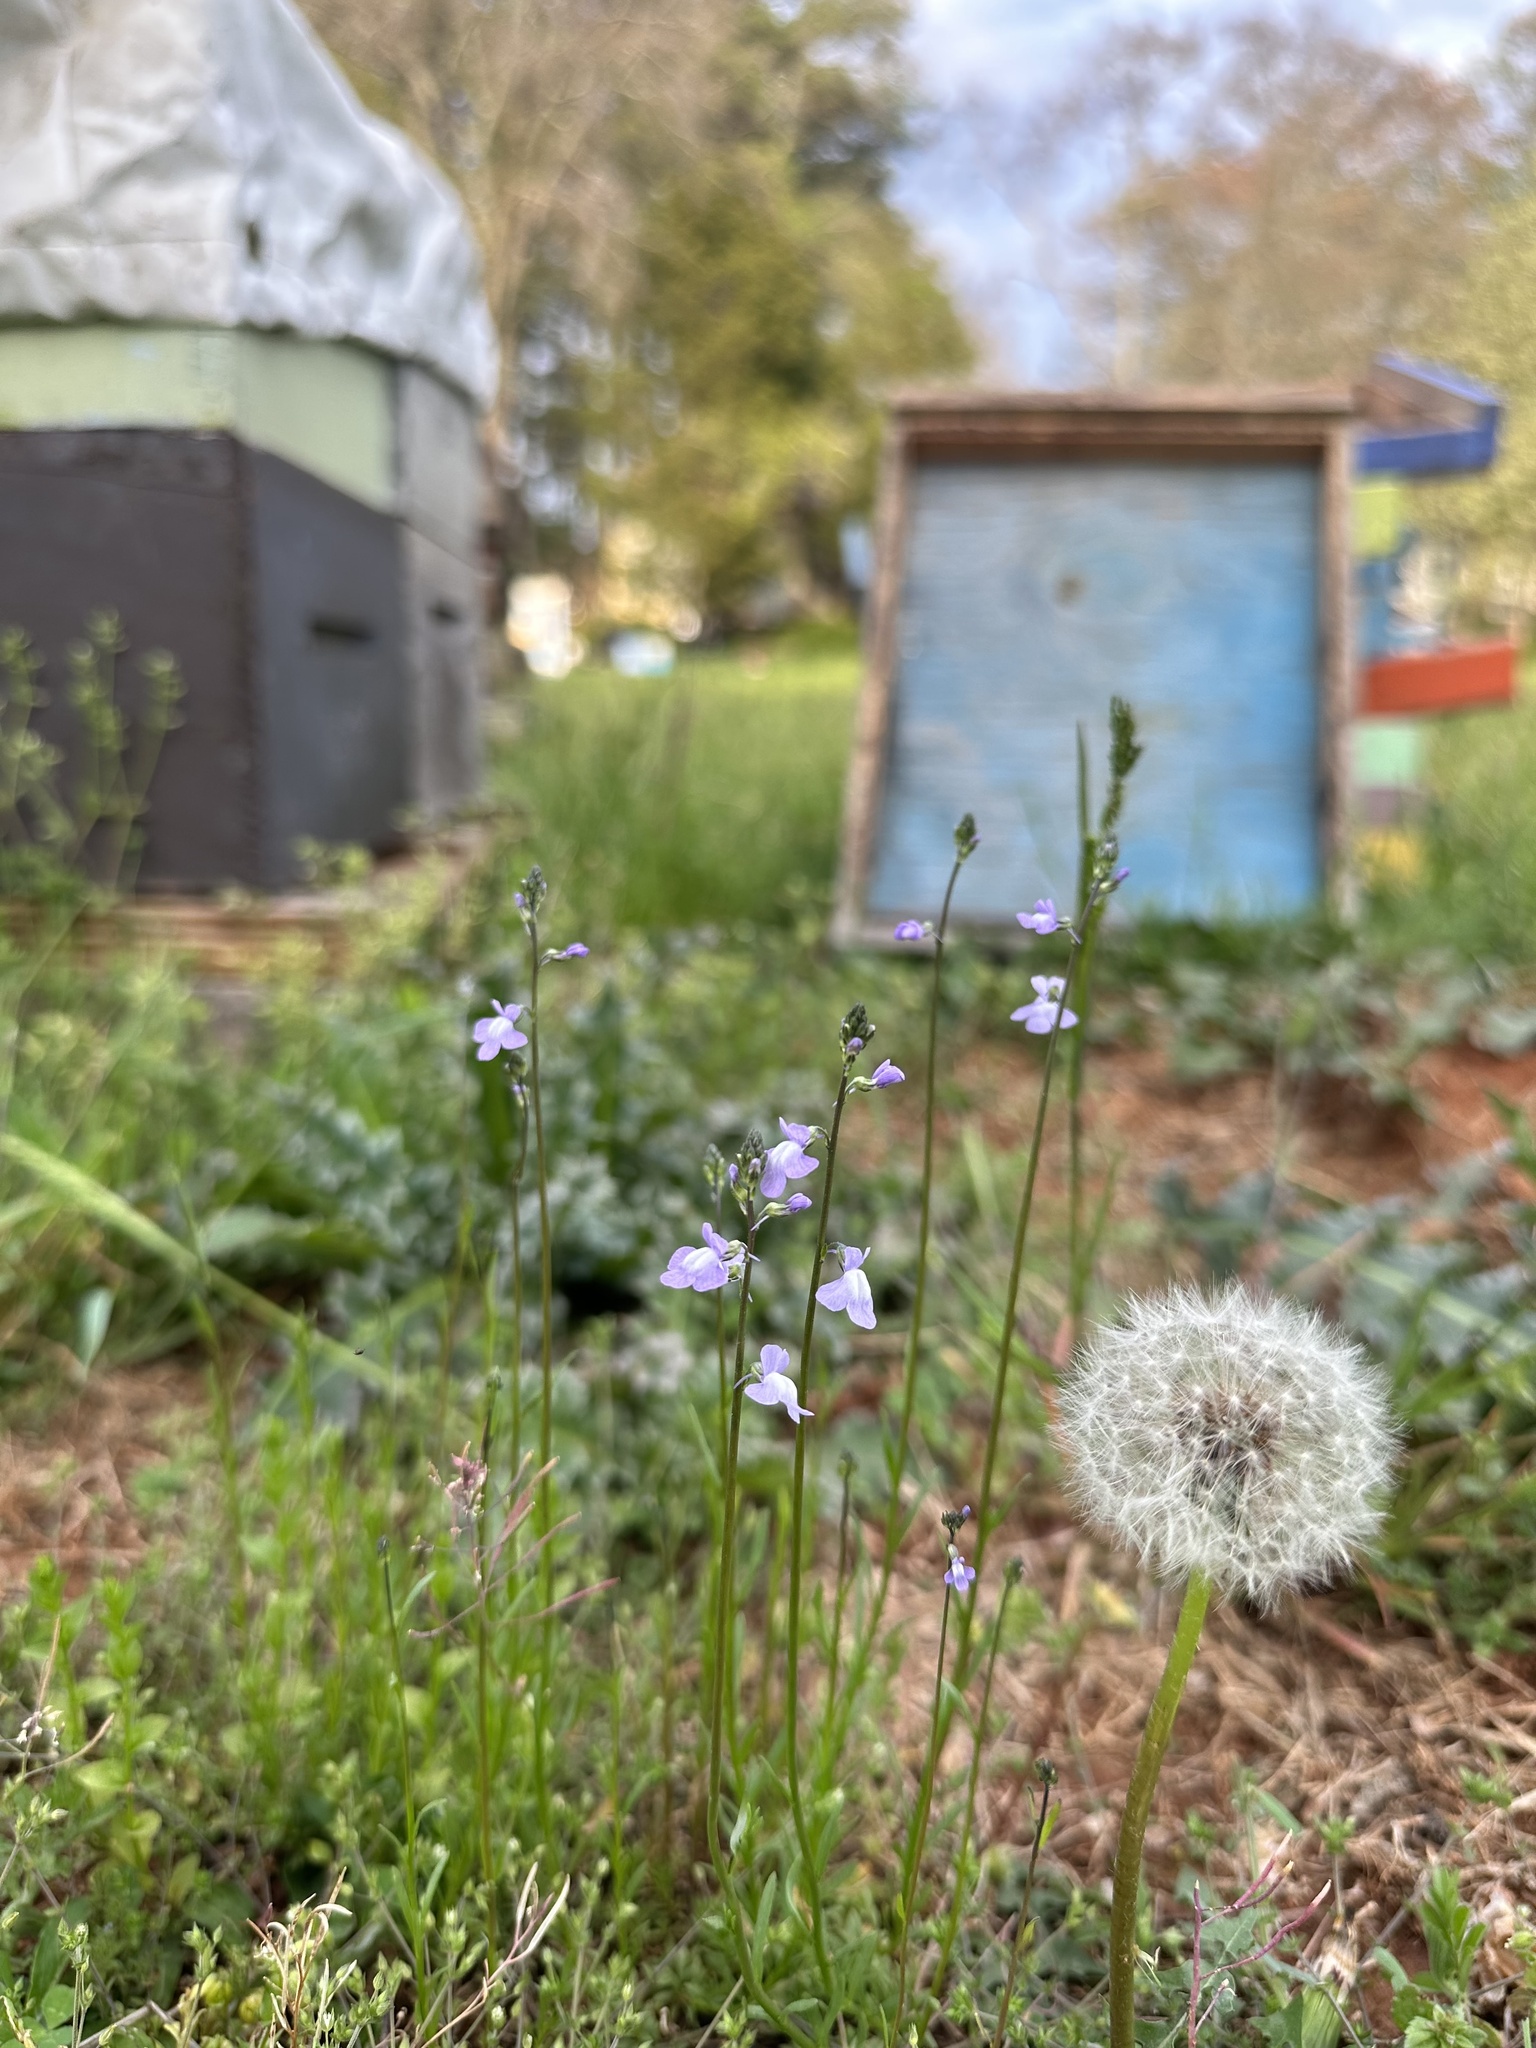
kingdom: Plantae
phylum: Tracheophyta
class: Magnoliopsida
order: Lamiales
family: Plantaginaceae
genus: Nuttallanthus
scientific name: Nuttallanthus canadensis
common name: Blue toadflax
